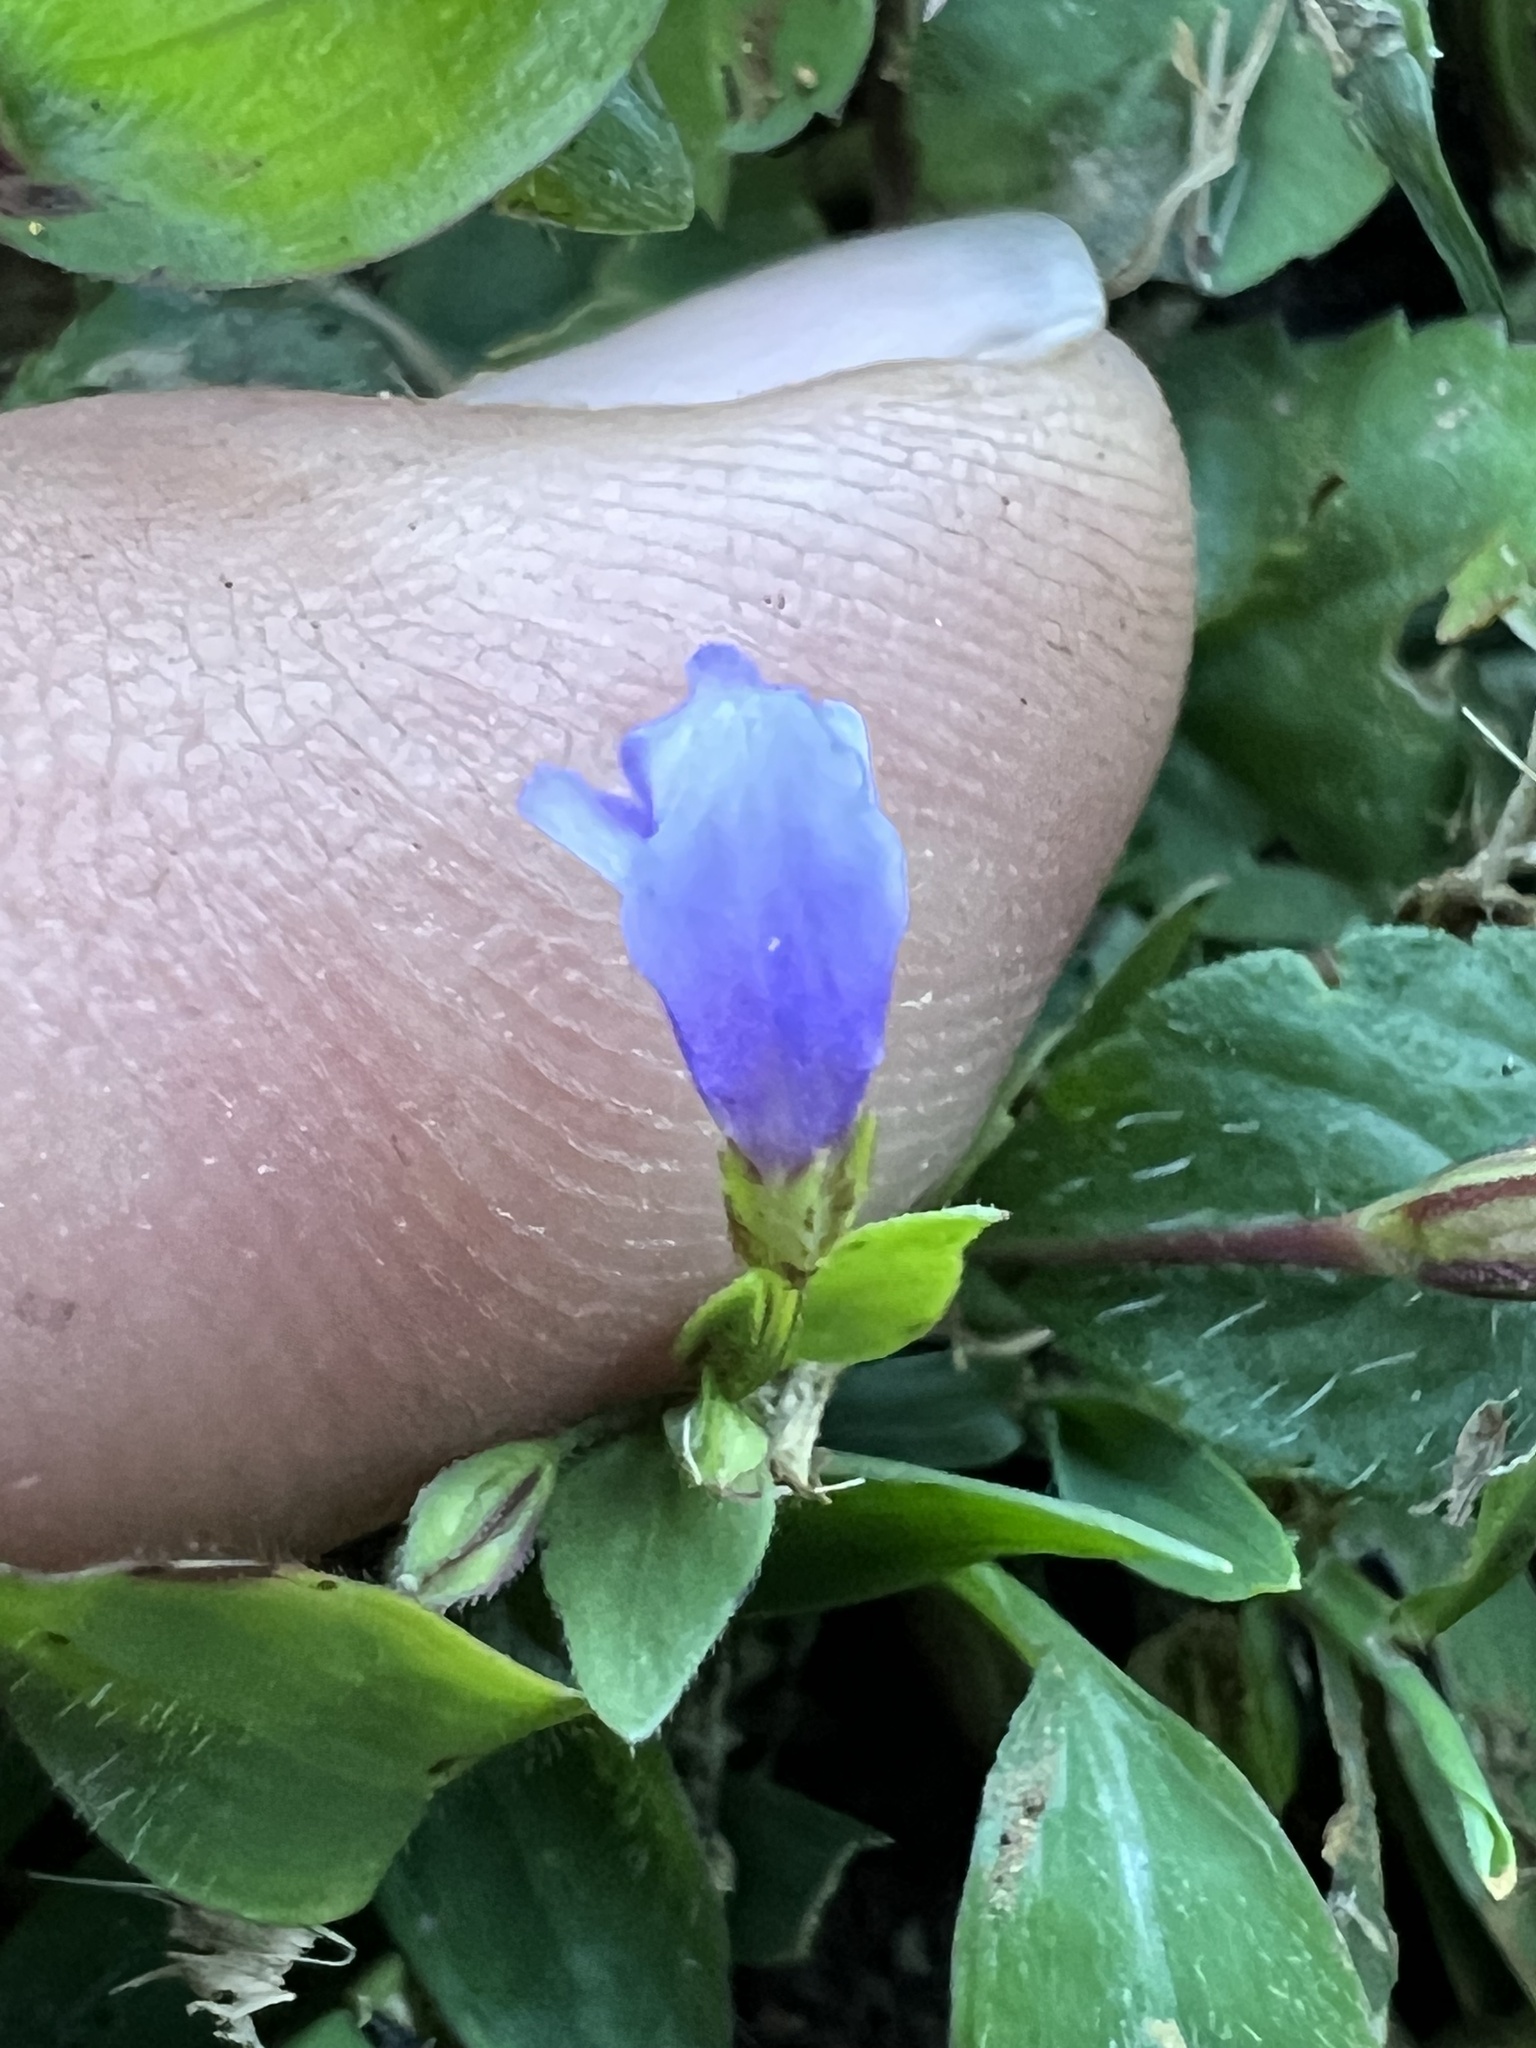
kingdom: Plantae
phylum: Tracheophyta
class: Magnoliopsida
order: Lamiales
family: Linderniaceae
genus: Torenia
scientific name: Torenia crustacea
